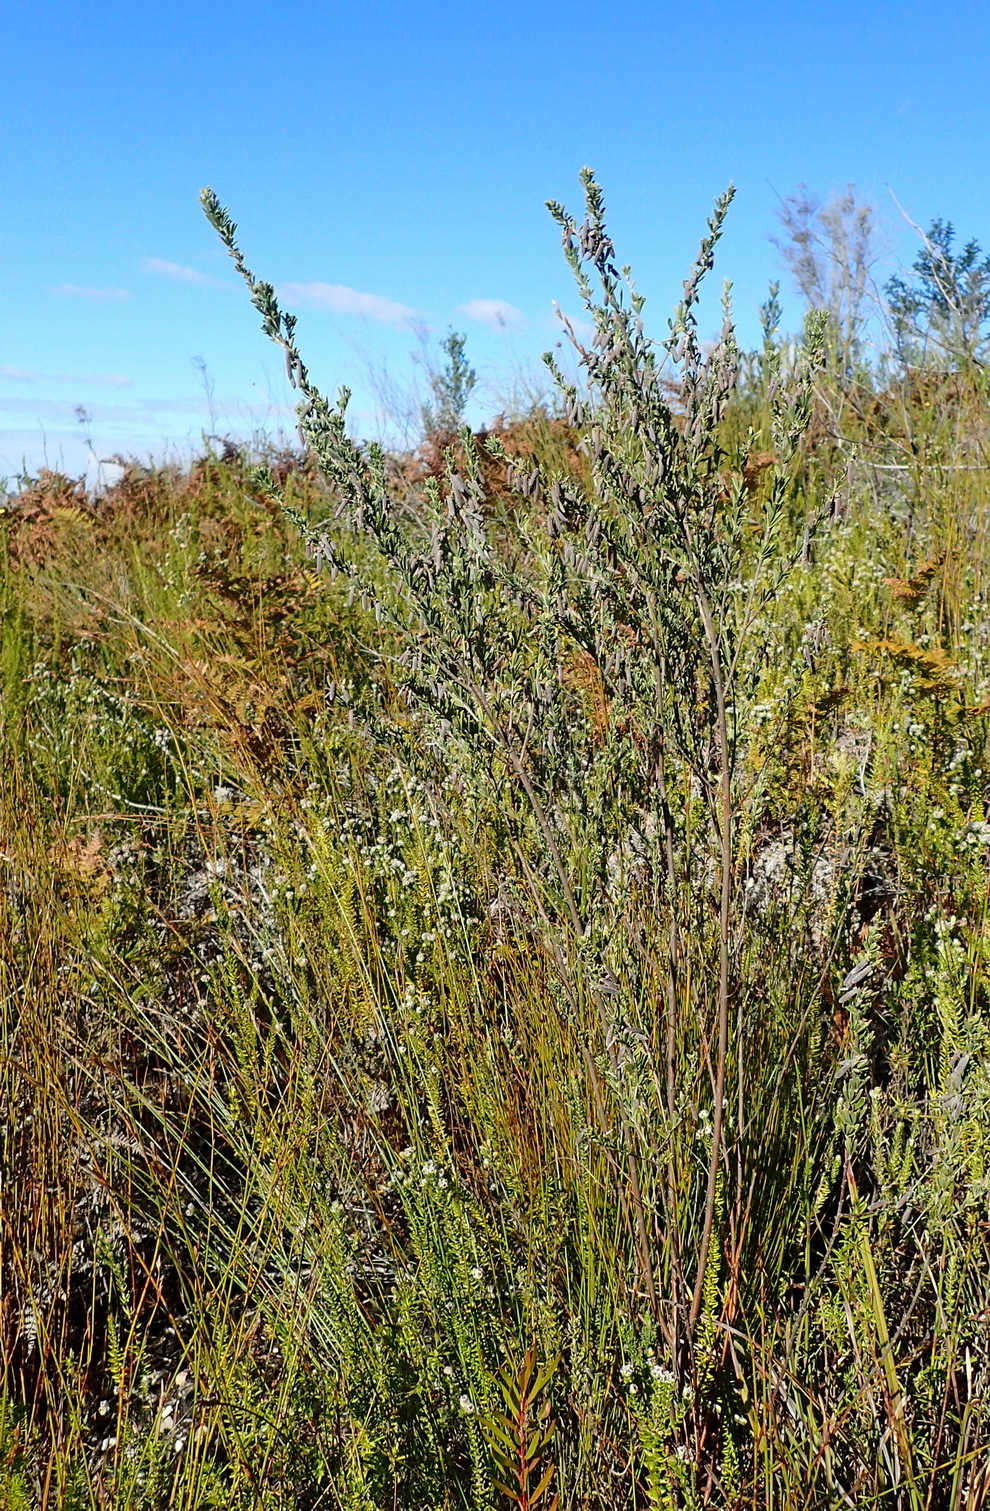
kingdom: Plantae
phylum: Tracheophyta
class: Magnoliopsida
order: Fabales
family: Fabaceae
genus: Indigofera
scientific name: Indigofera flabellata
